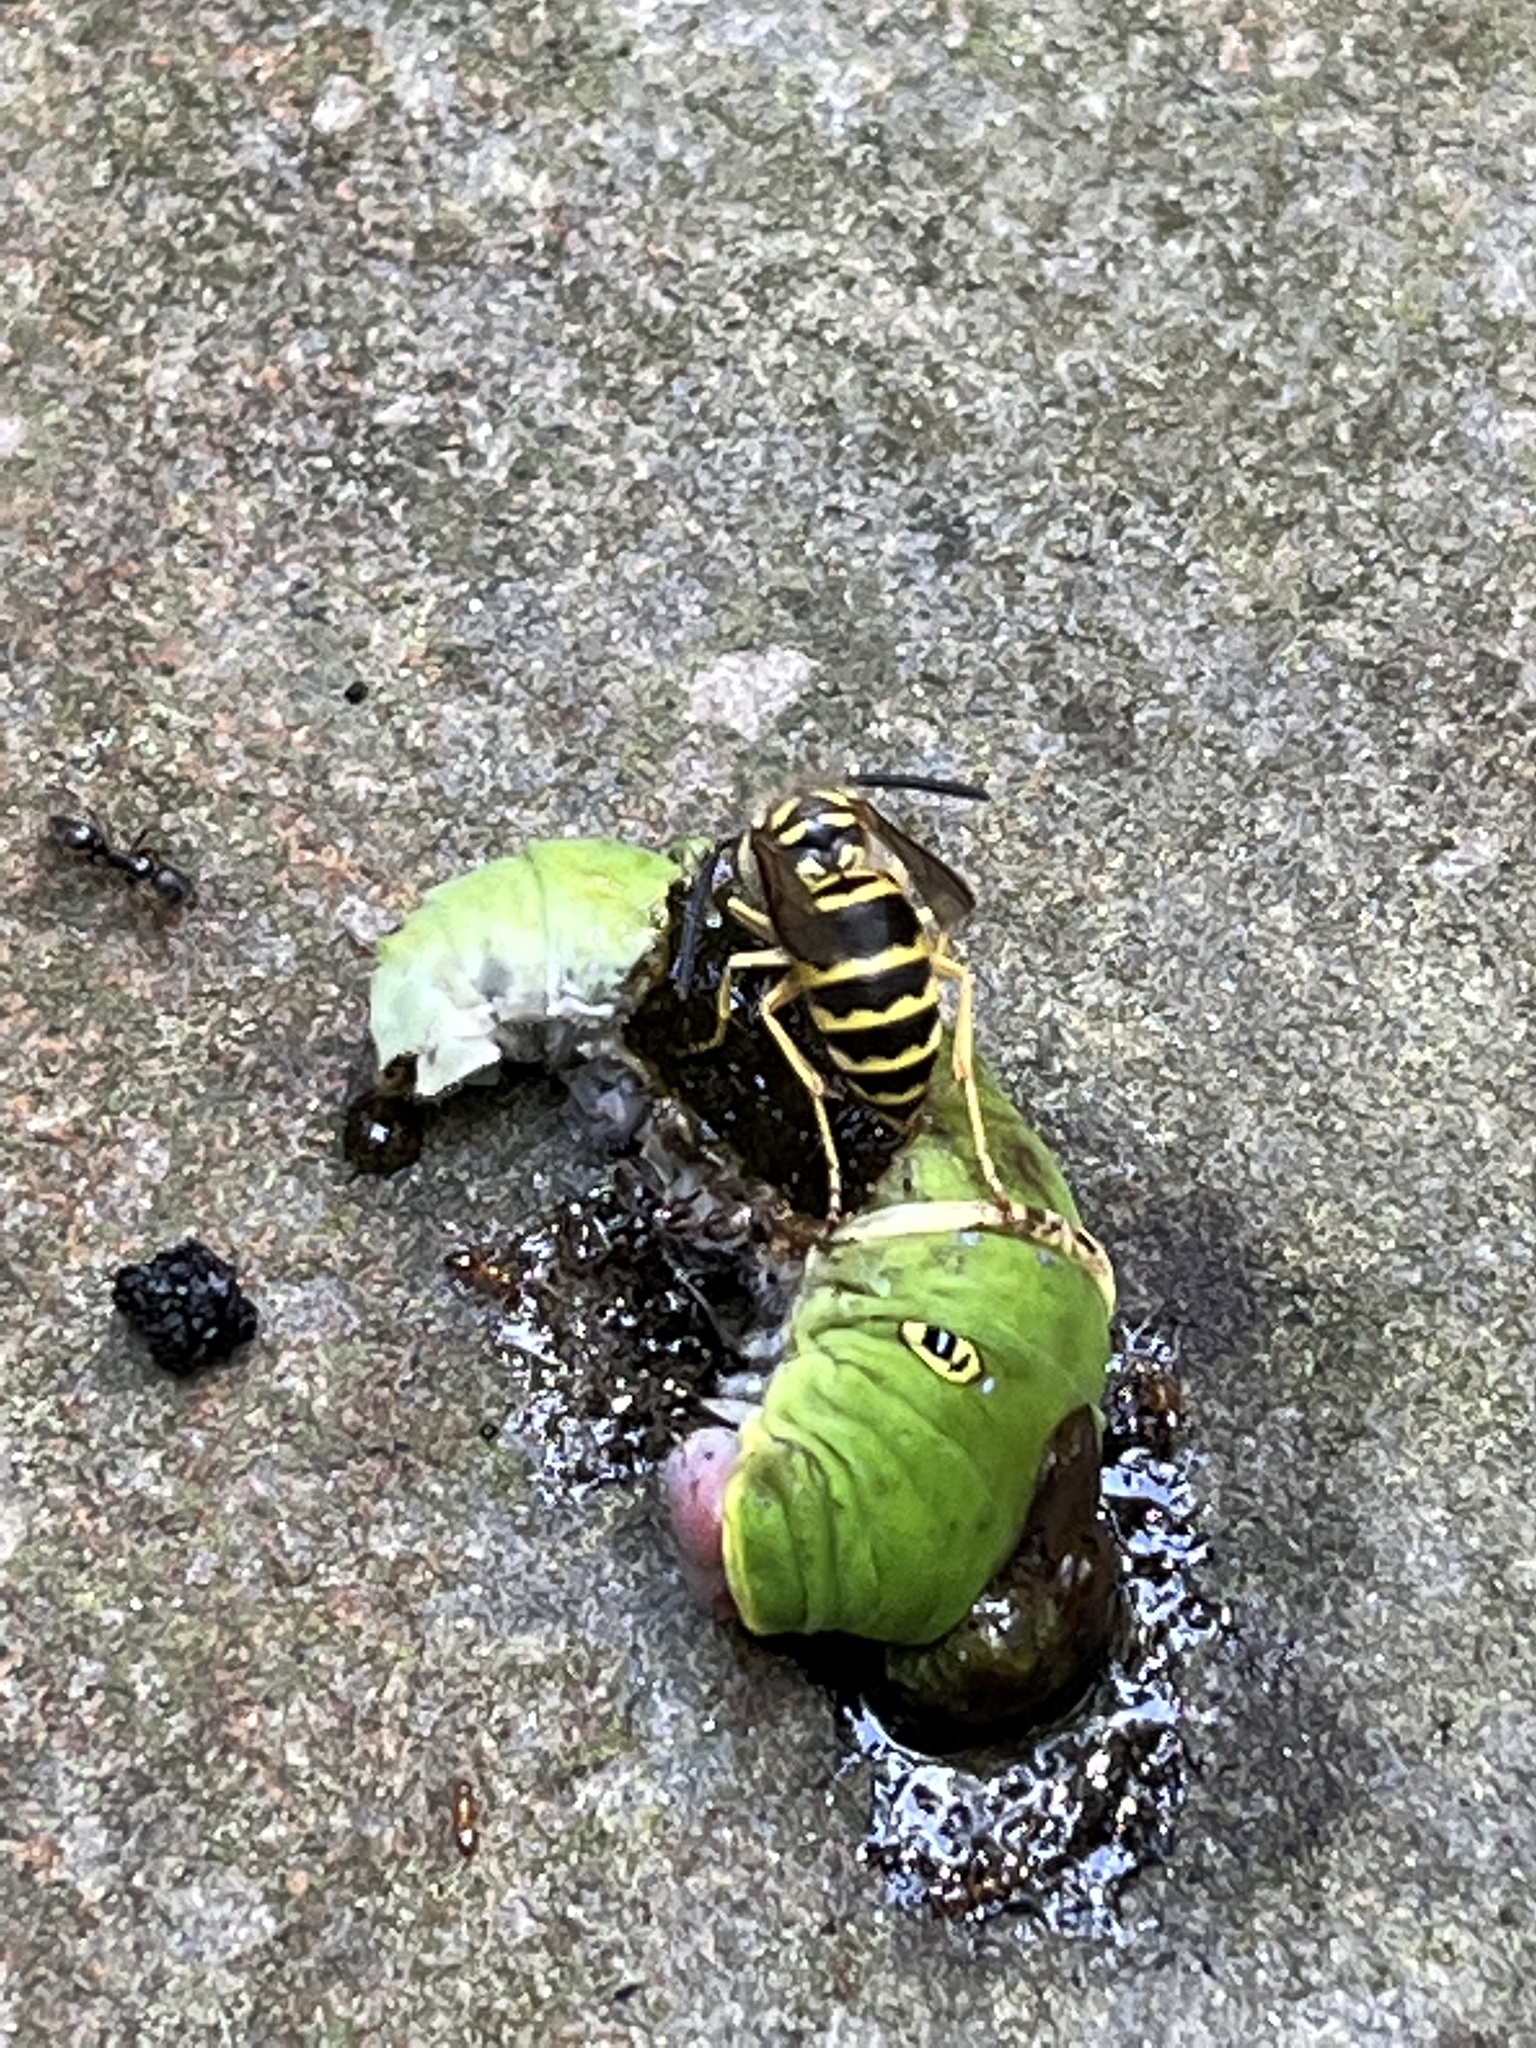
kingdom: Animalia
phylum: Arthropoda
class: Insecta
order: Lepidoptera
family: Papilionidae
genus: Papilio
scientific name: Papilio glaucus
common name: Tiger swallowtail
